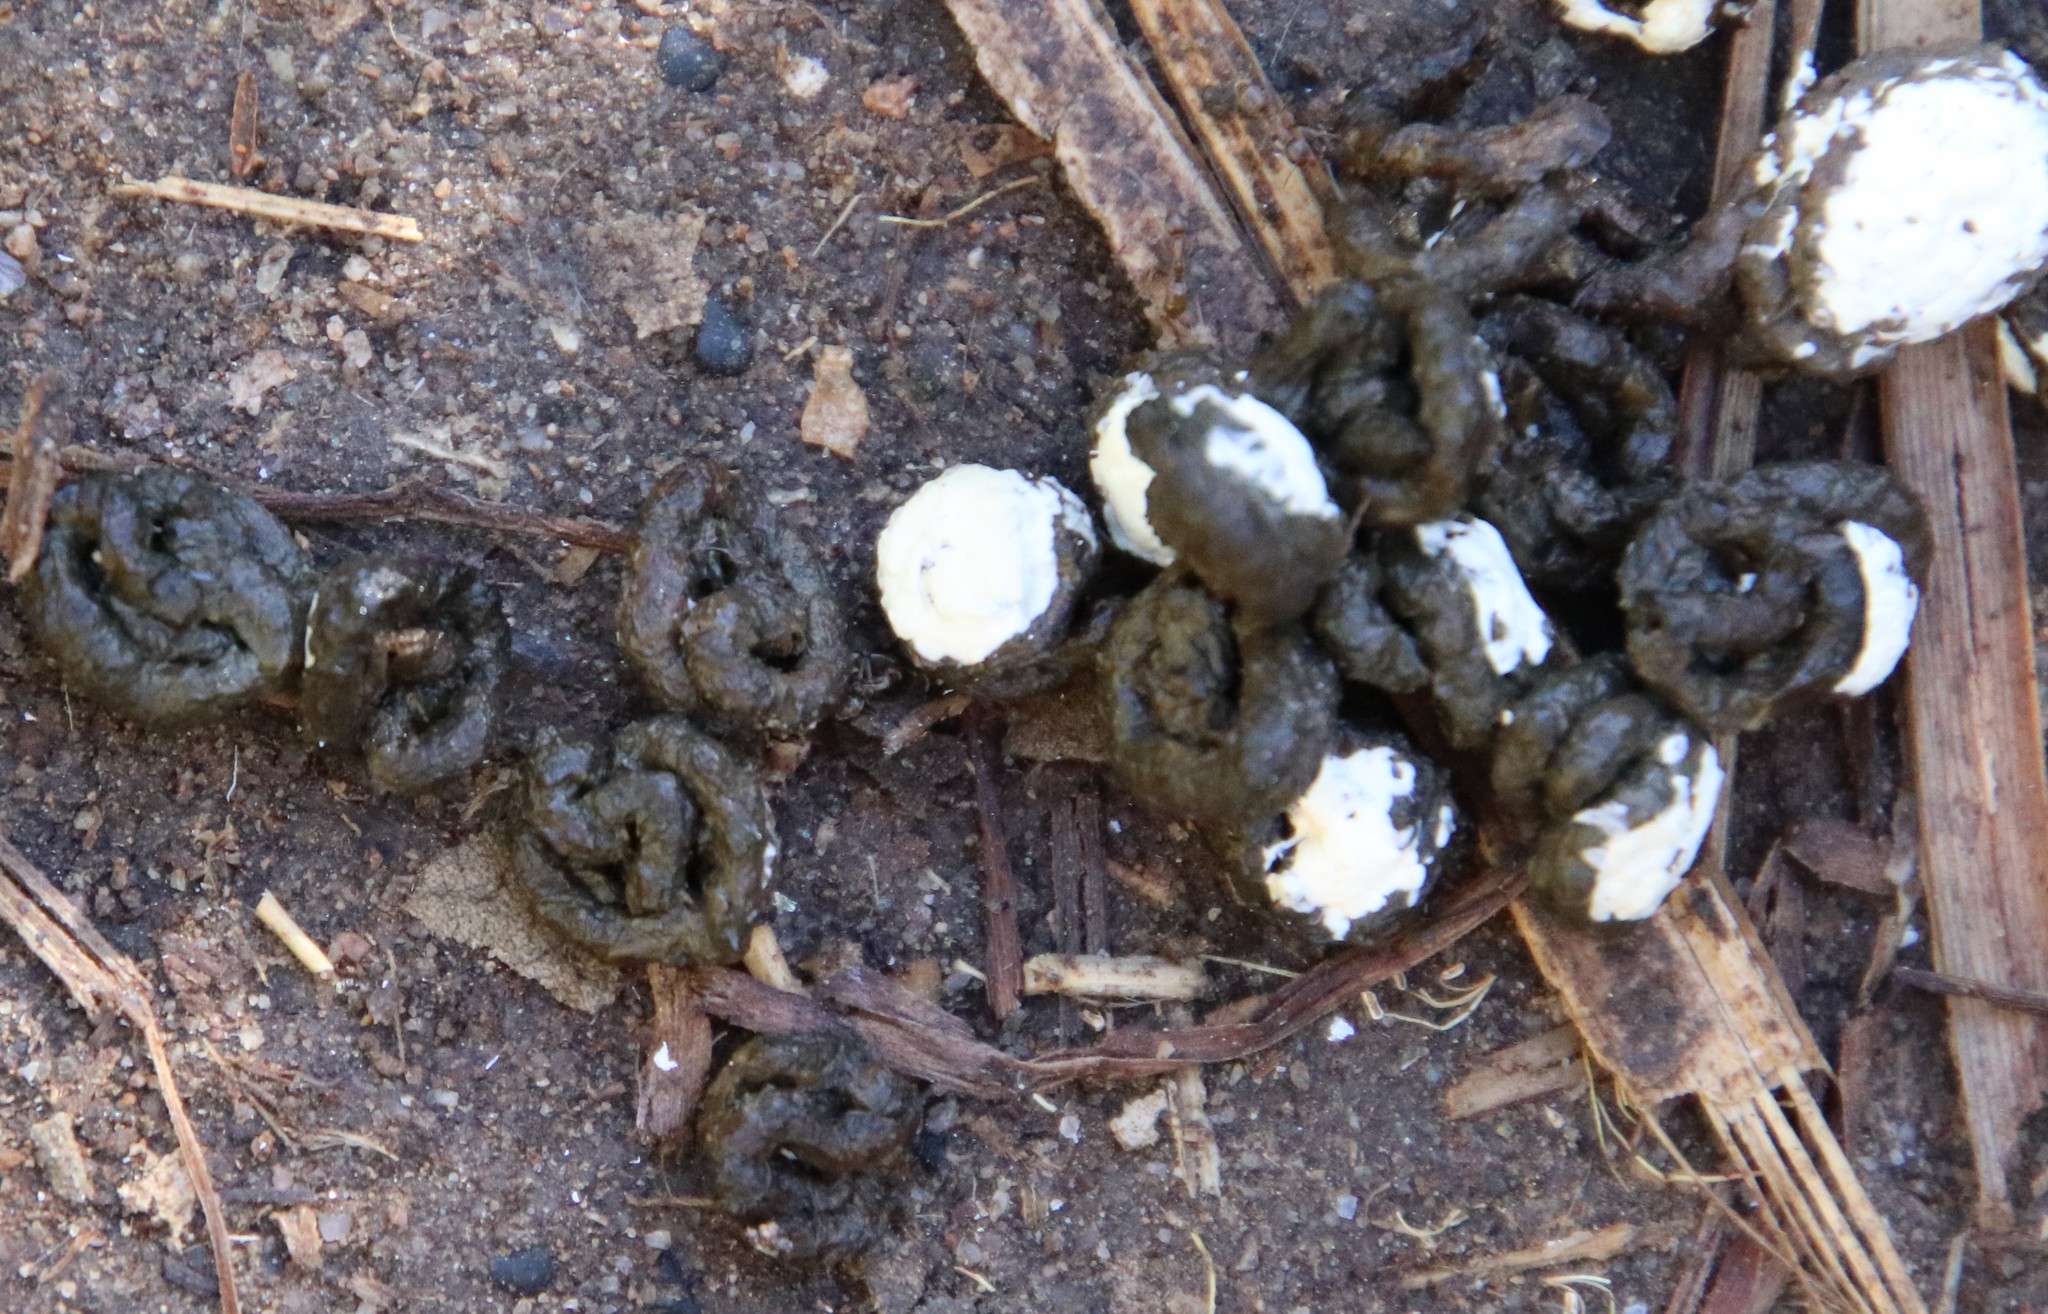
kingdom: Animalia
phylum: Chordata
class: Aves
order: Columbiformes
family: Columbidae
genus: Zenaida
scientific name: Zenaida macroura
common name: Mourning dove
